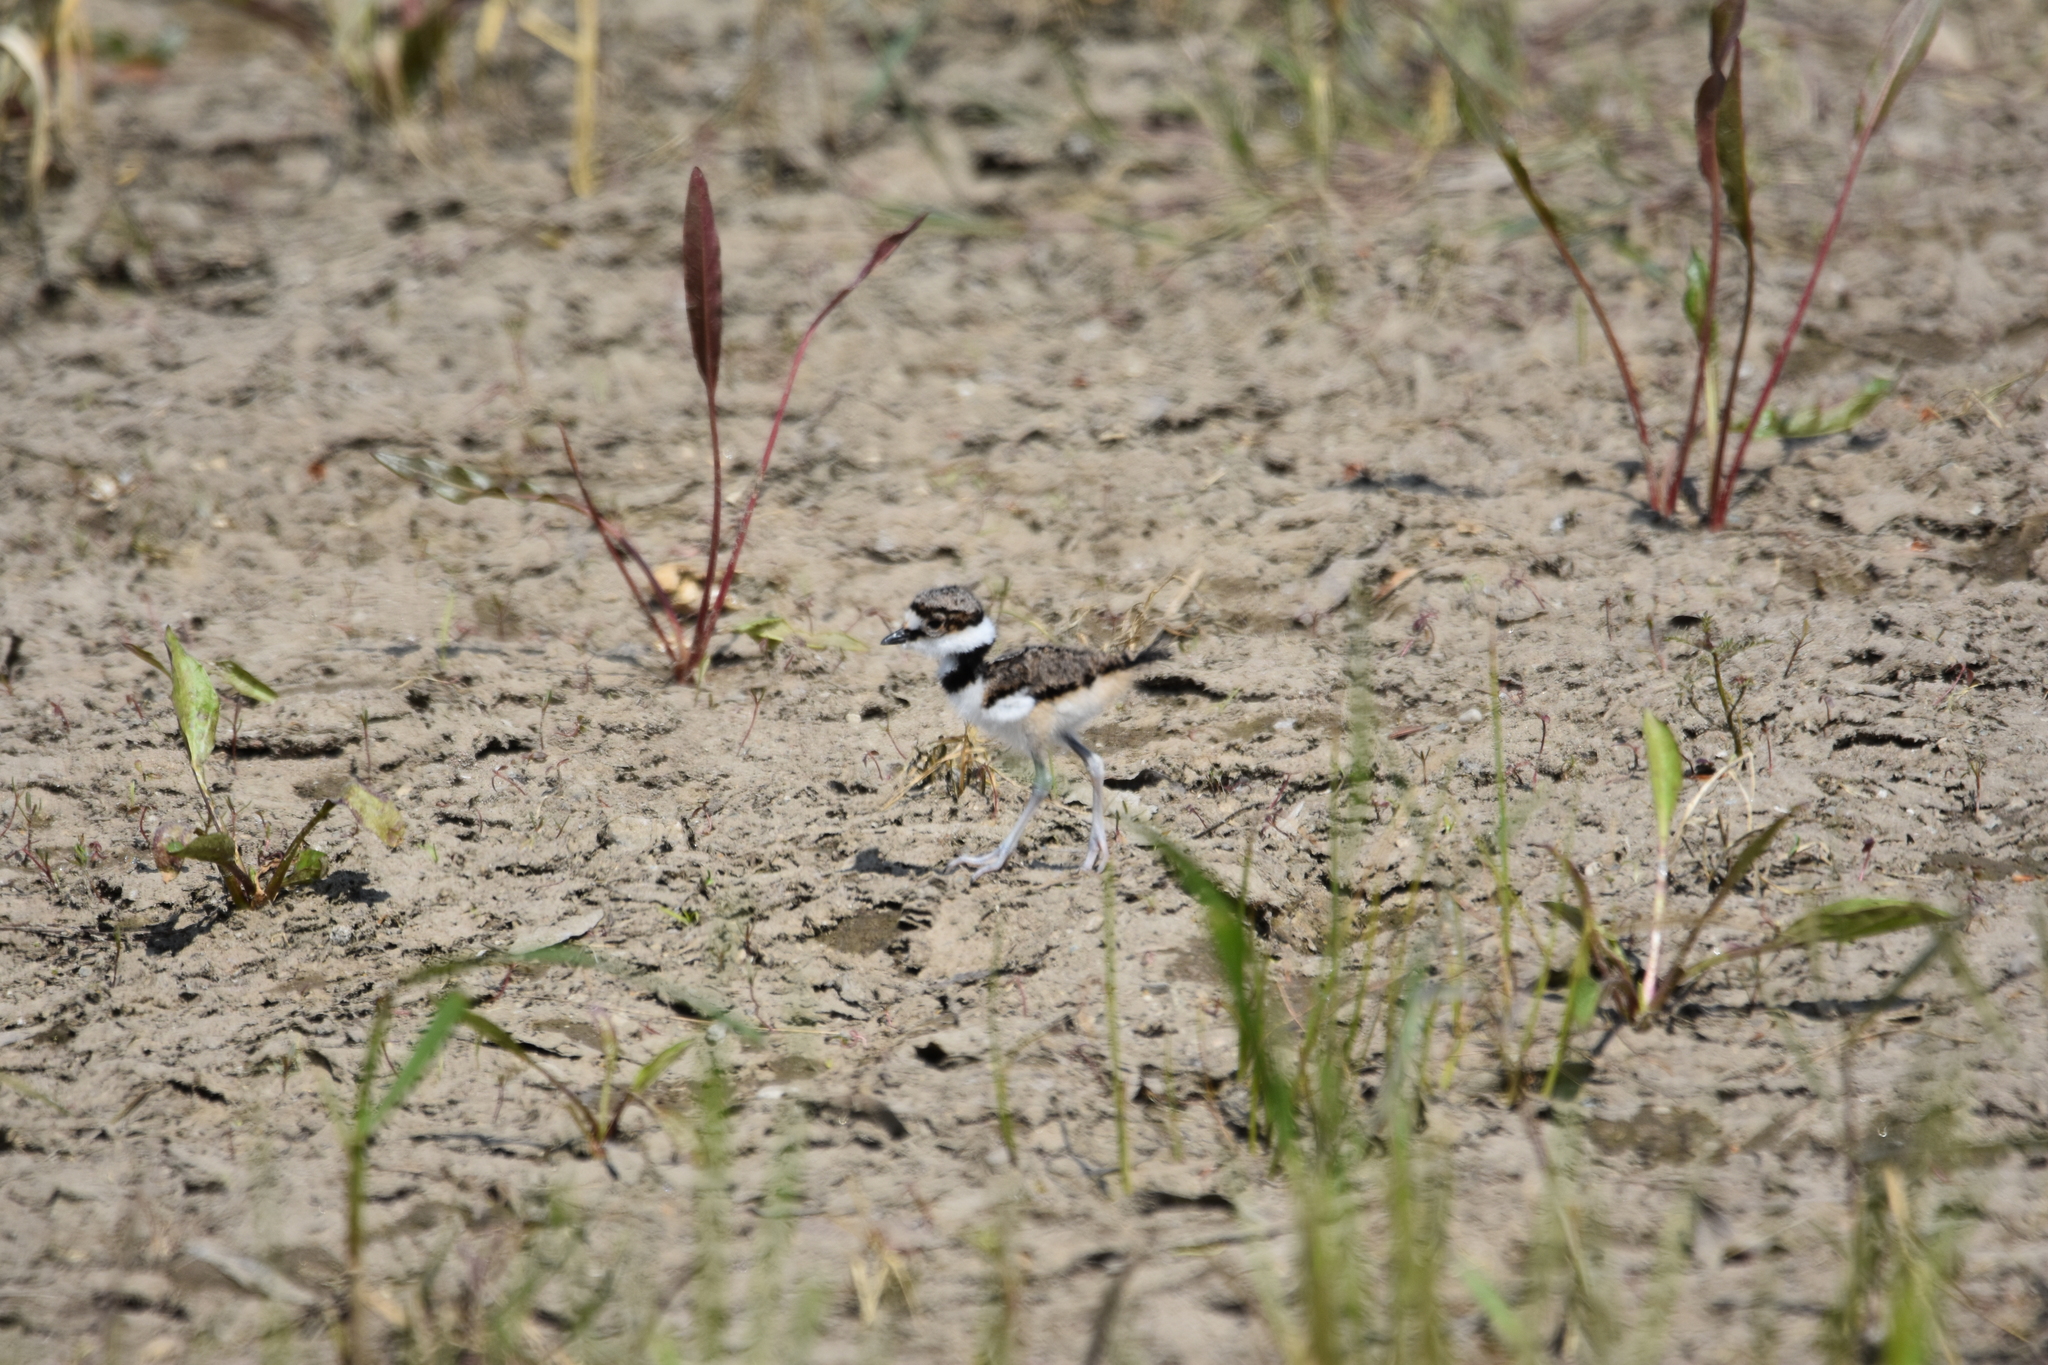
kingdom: Animalia
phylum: Chordata
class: Aves
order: Charadriiformes
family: Charadriidae
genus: Charadrius
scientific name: Charadrius vociferus
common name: Killdeer
